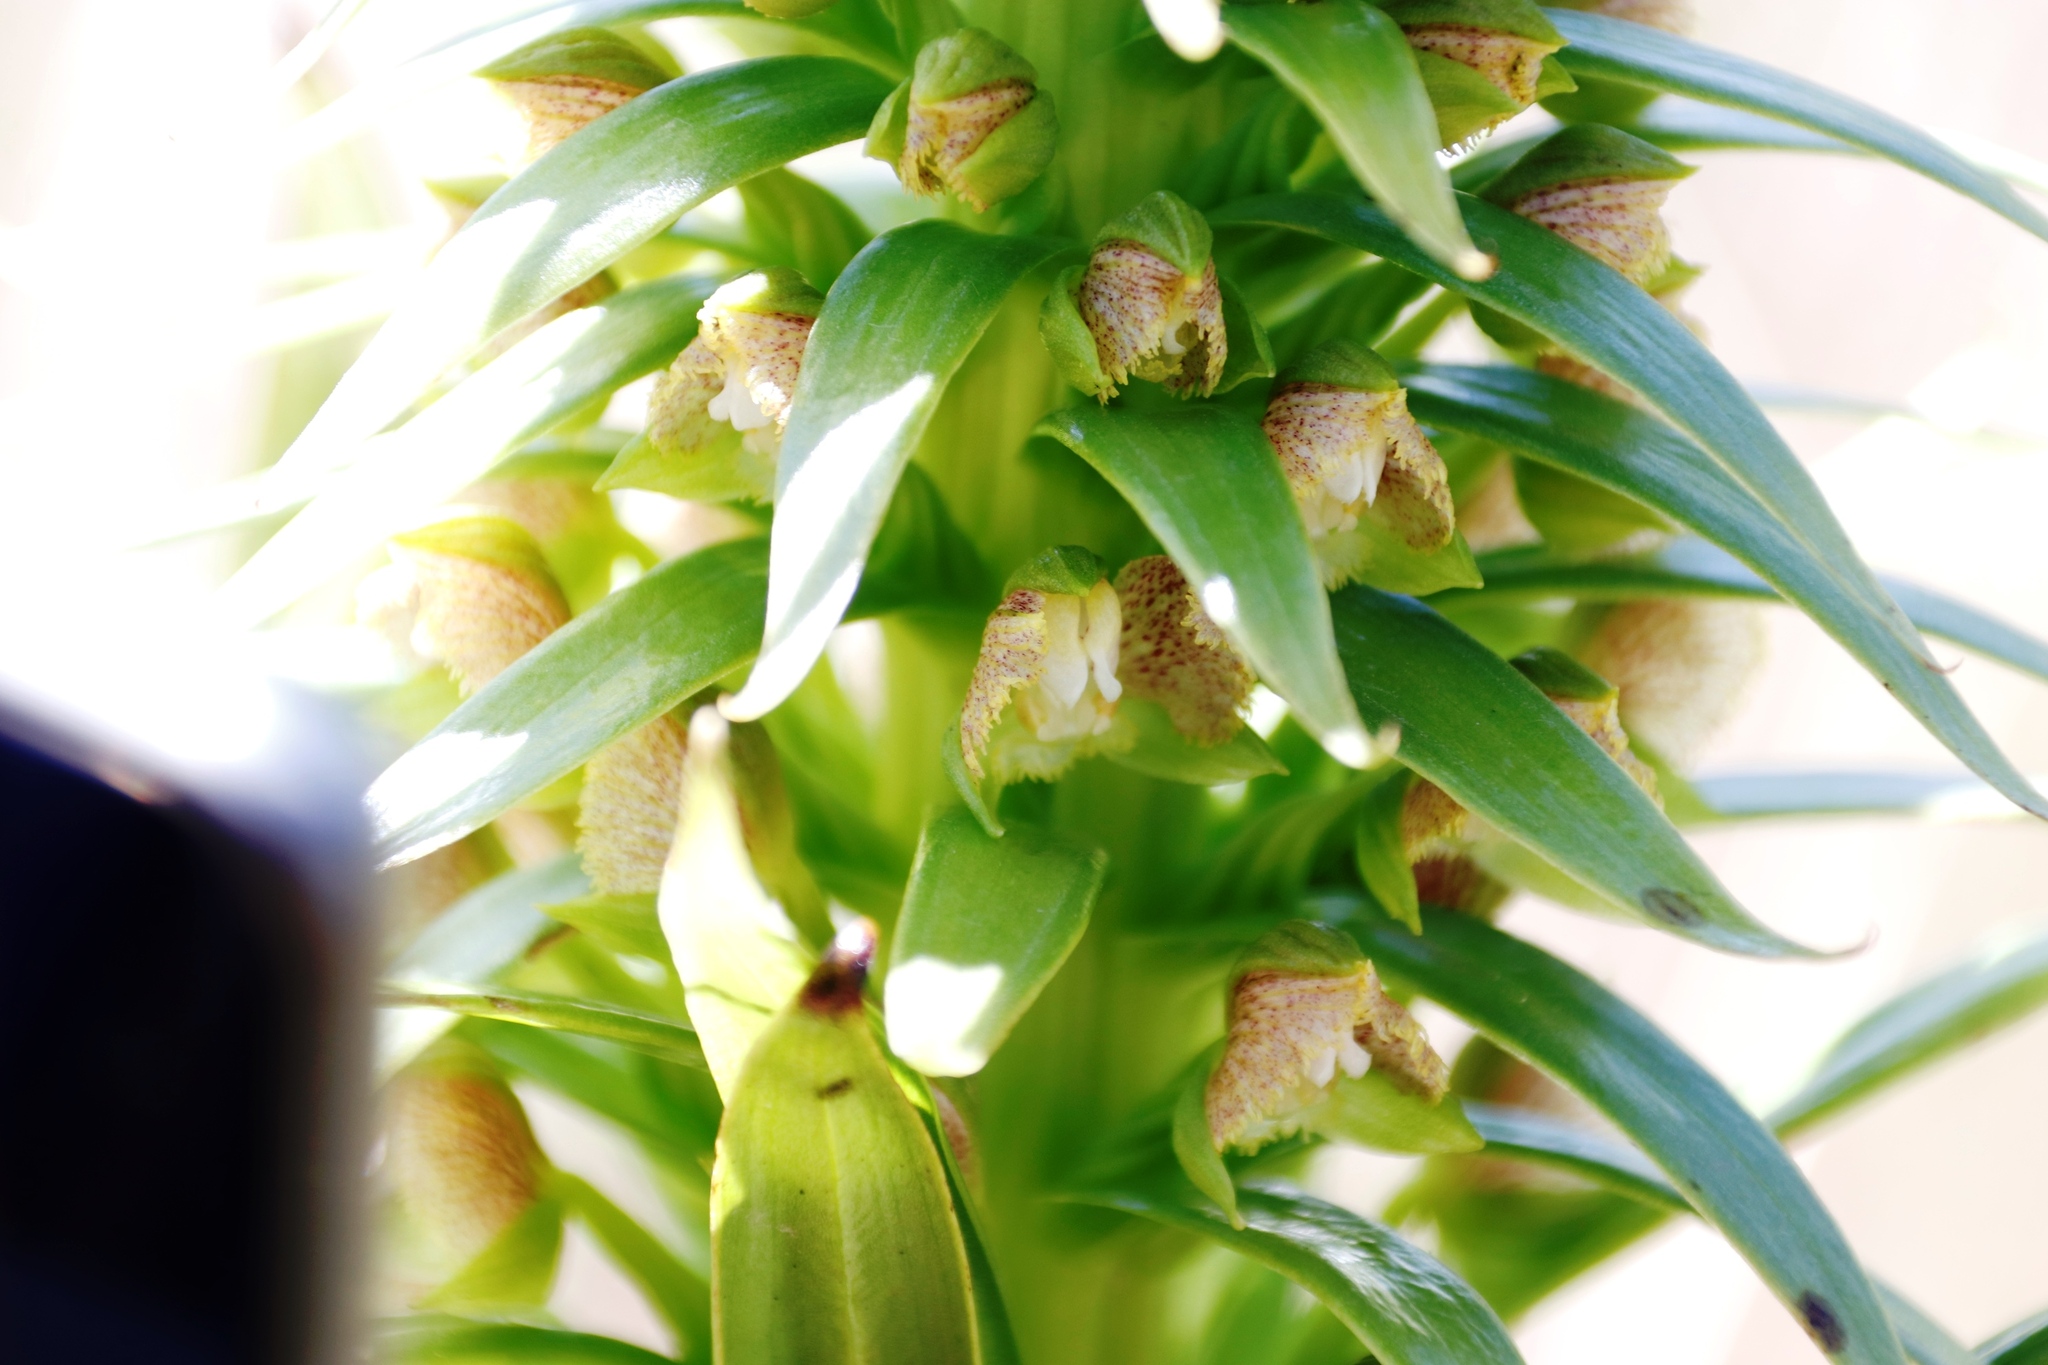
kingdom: Plantae
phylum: Tracheophyta
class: Liliopsida
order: Asparagales
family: Orchidaceae
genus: Pterygodium
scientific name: Pterygodium magnum
